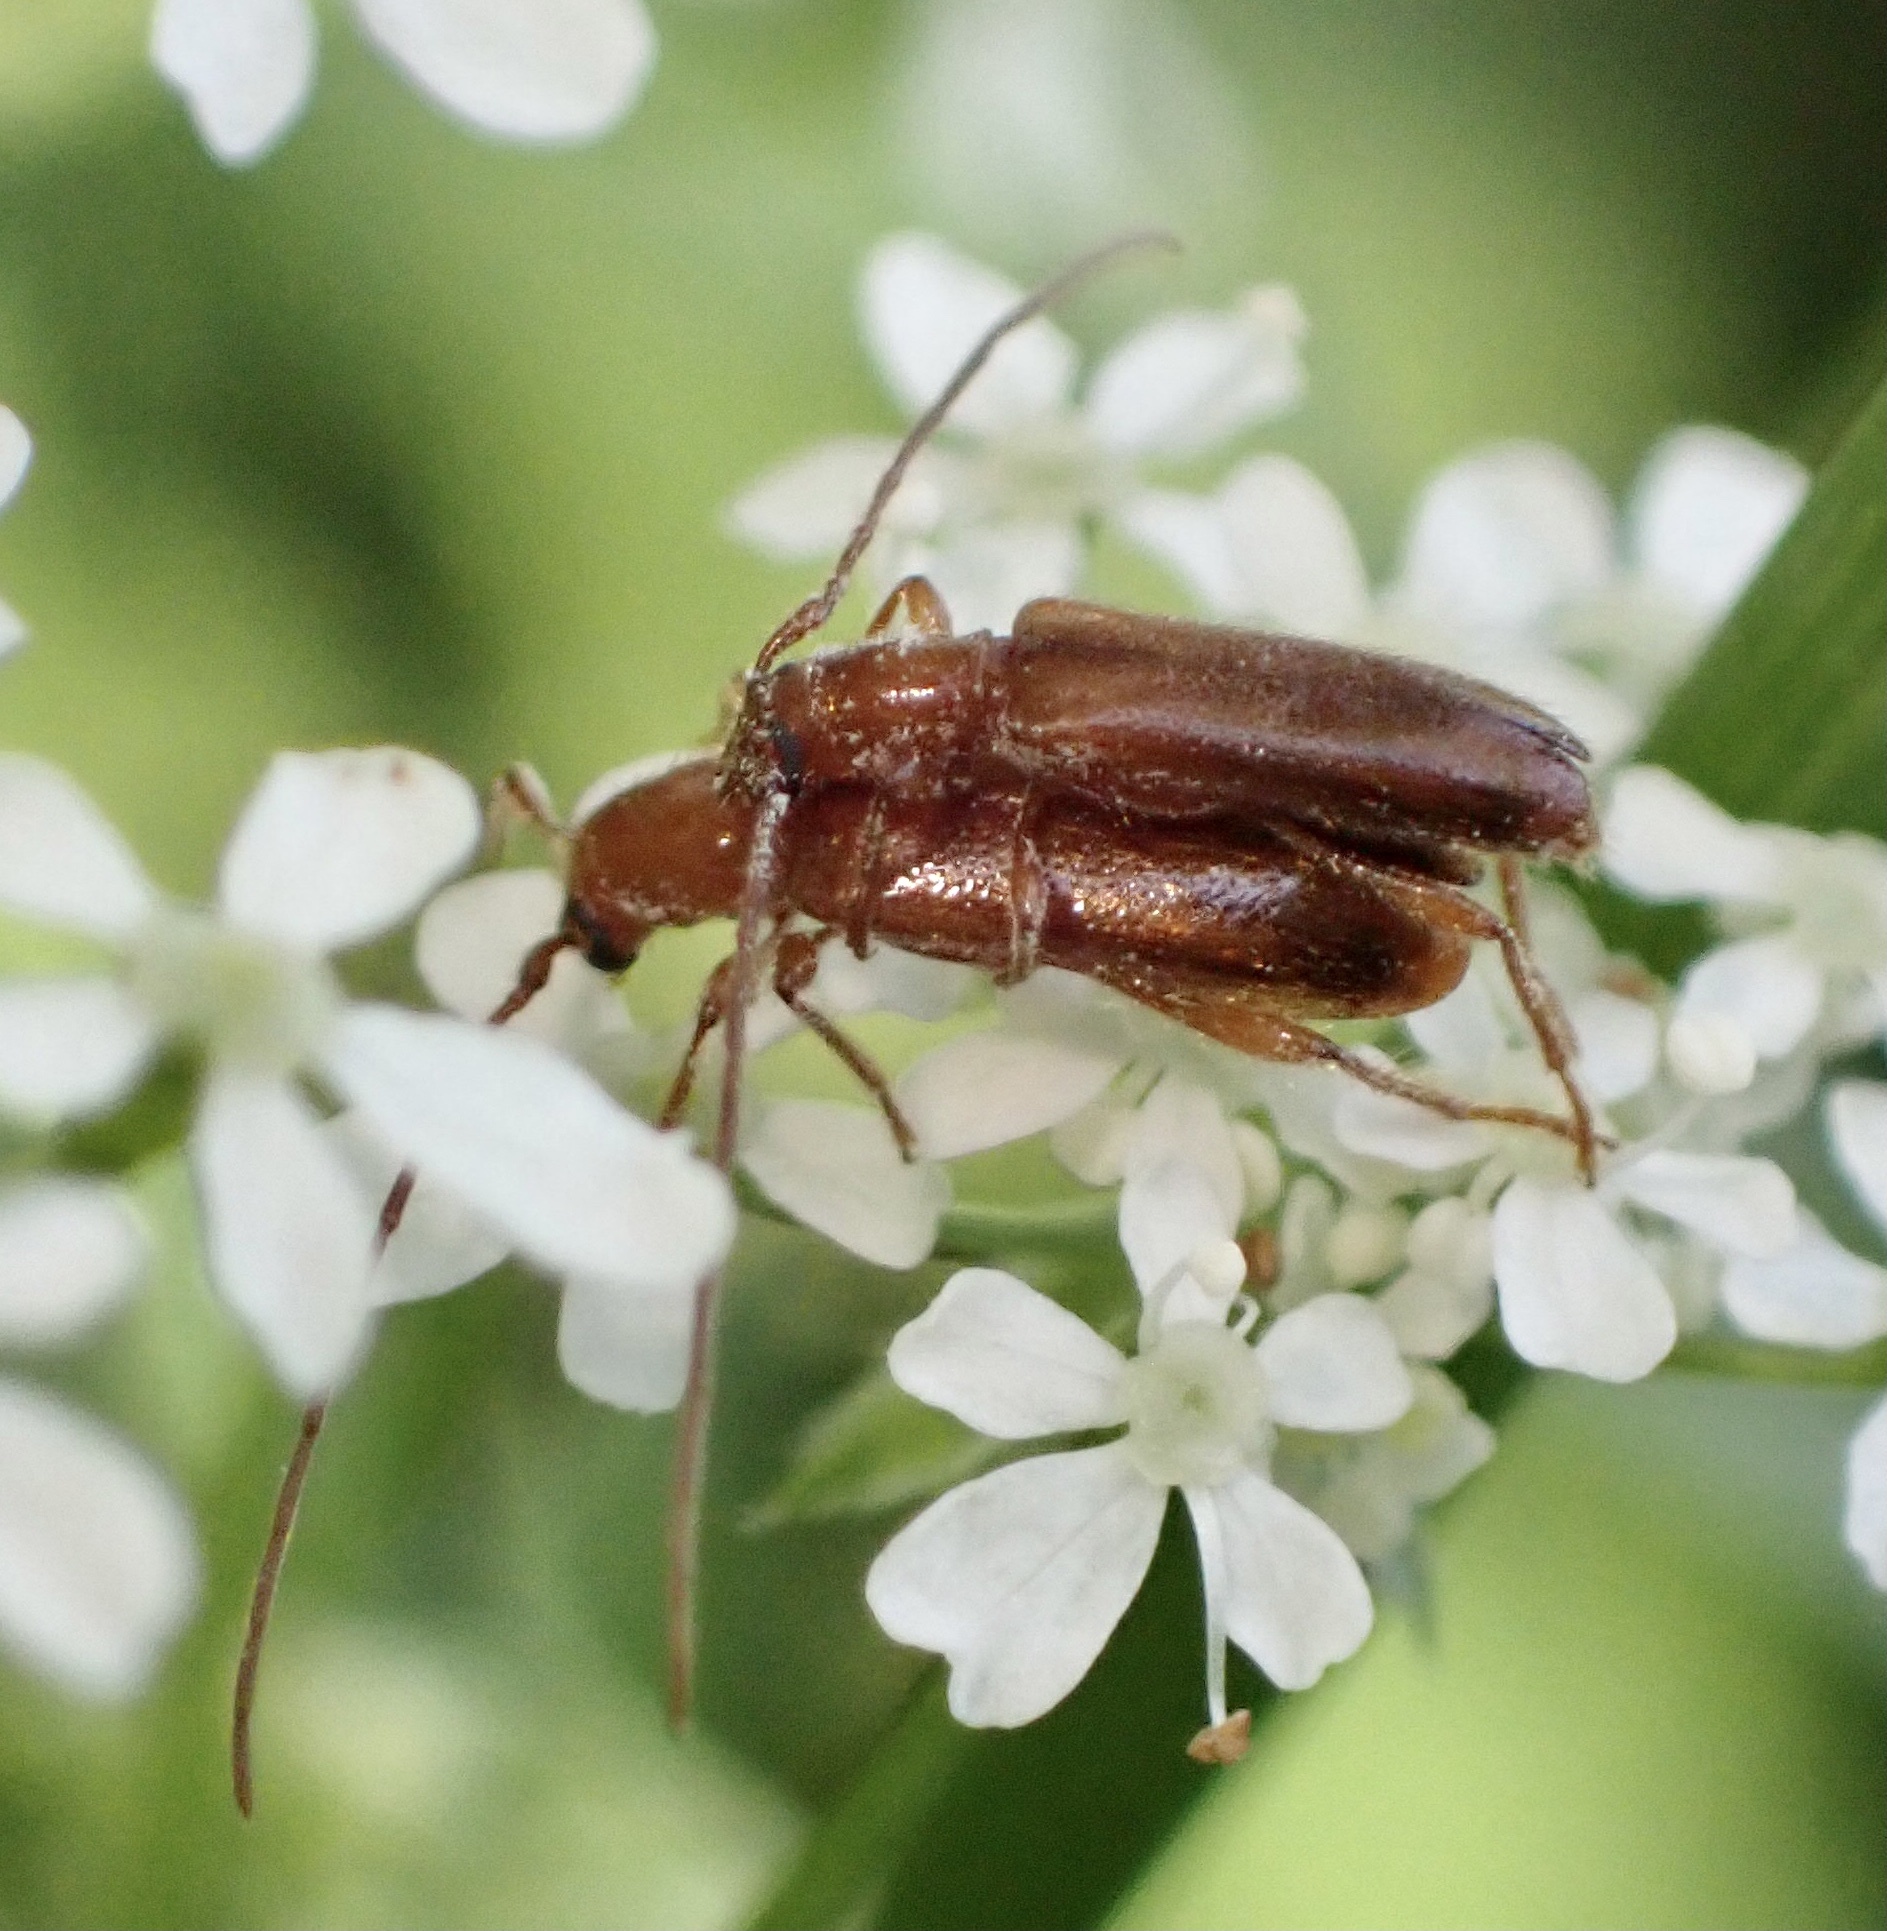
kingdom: Animalia
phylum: Arthropoda
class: Insecta
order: Coleoptera
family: Cerambycidae
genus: Obrium
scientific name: Obrium brunneum
